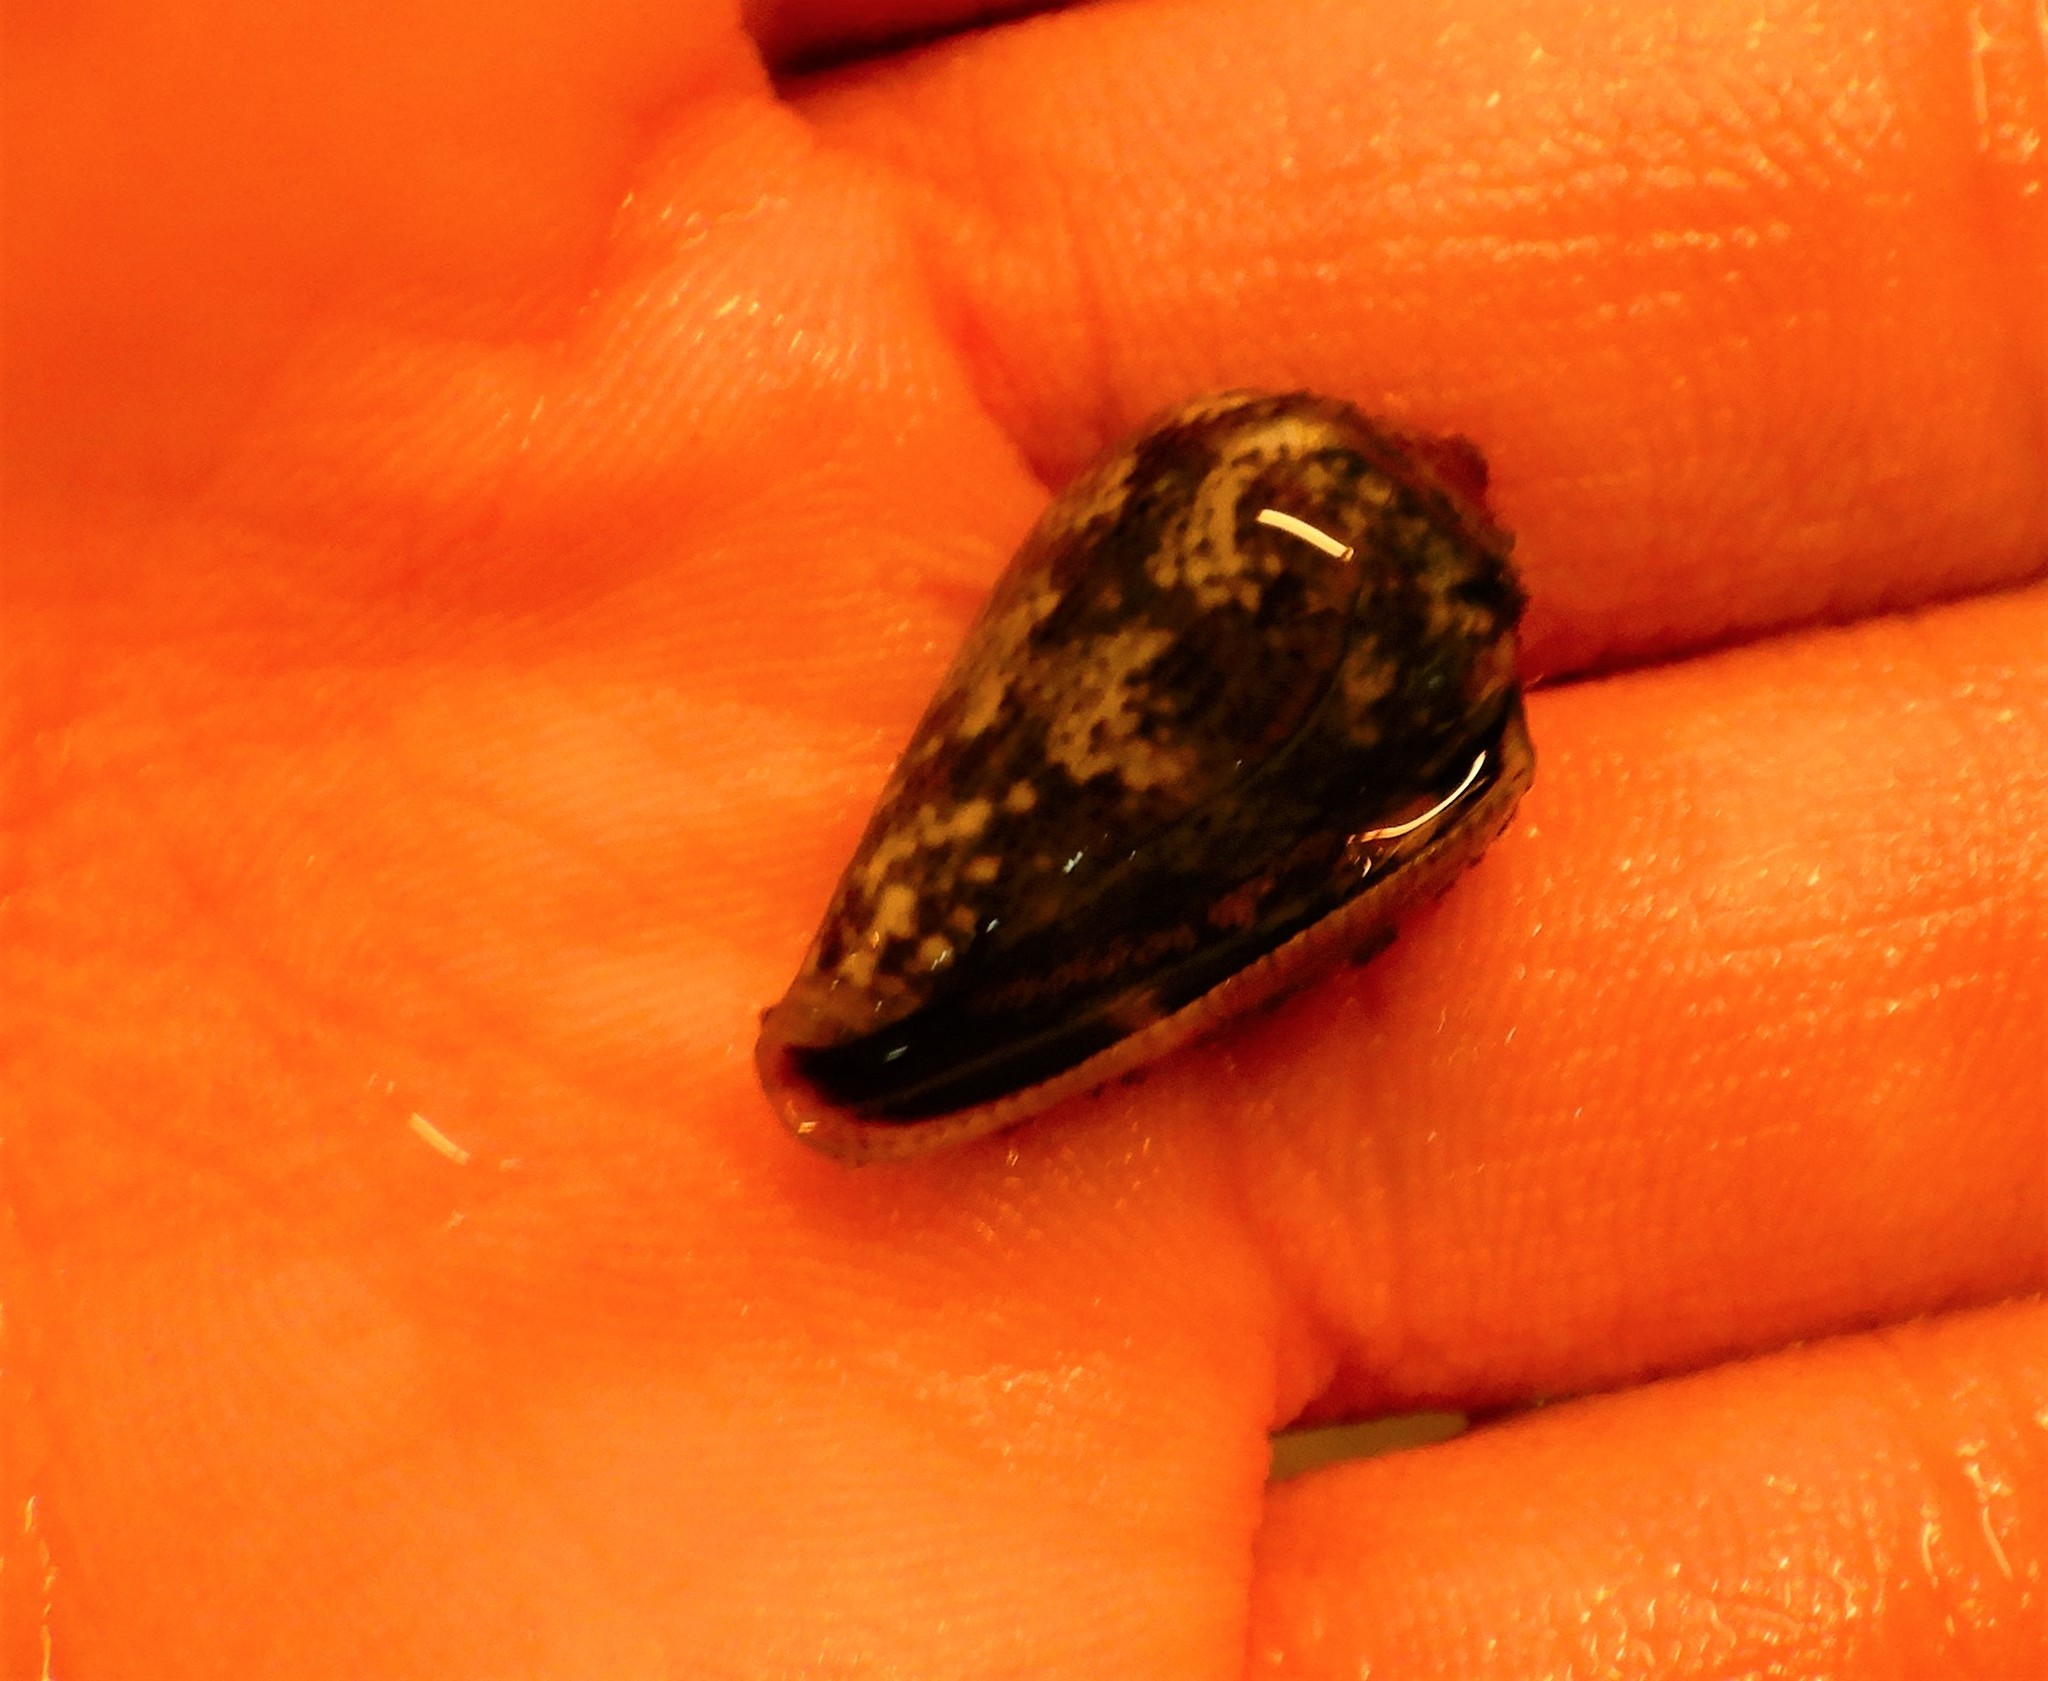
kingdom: Animalia
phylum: Mollusca
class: Gastropoda
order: Neogastropoda
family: Conidae
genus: Conus
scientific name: Conus ventricosus
